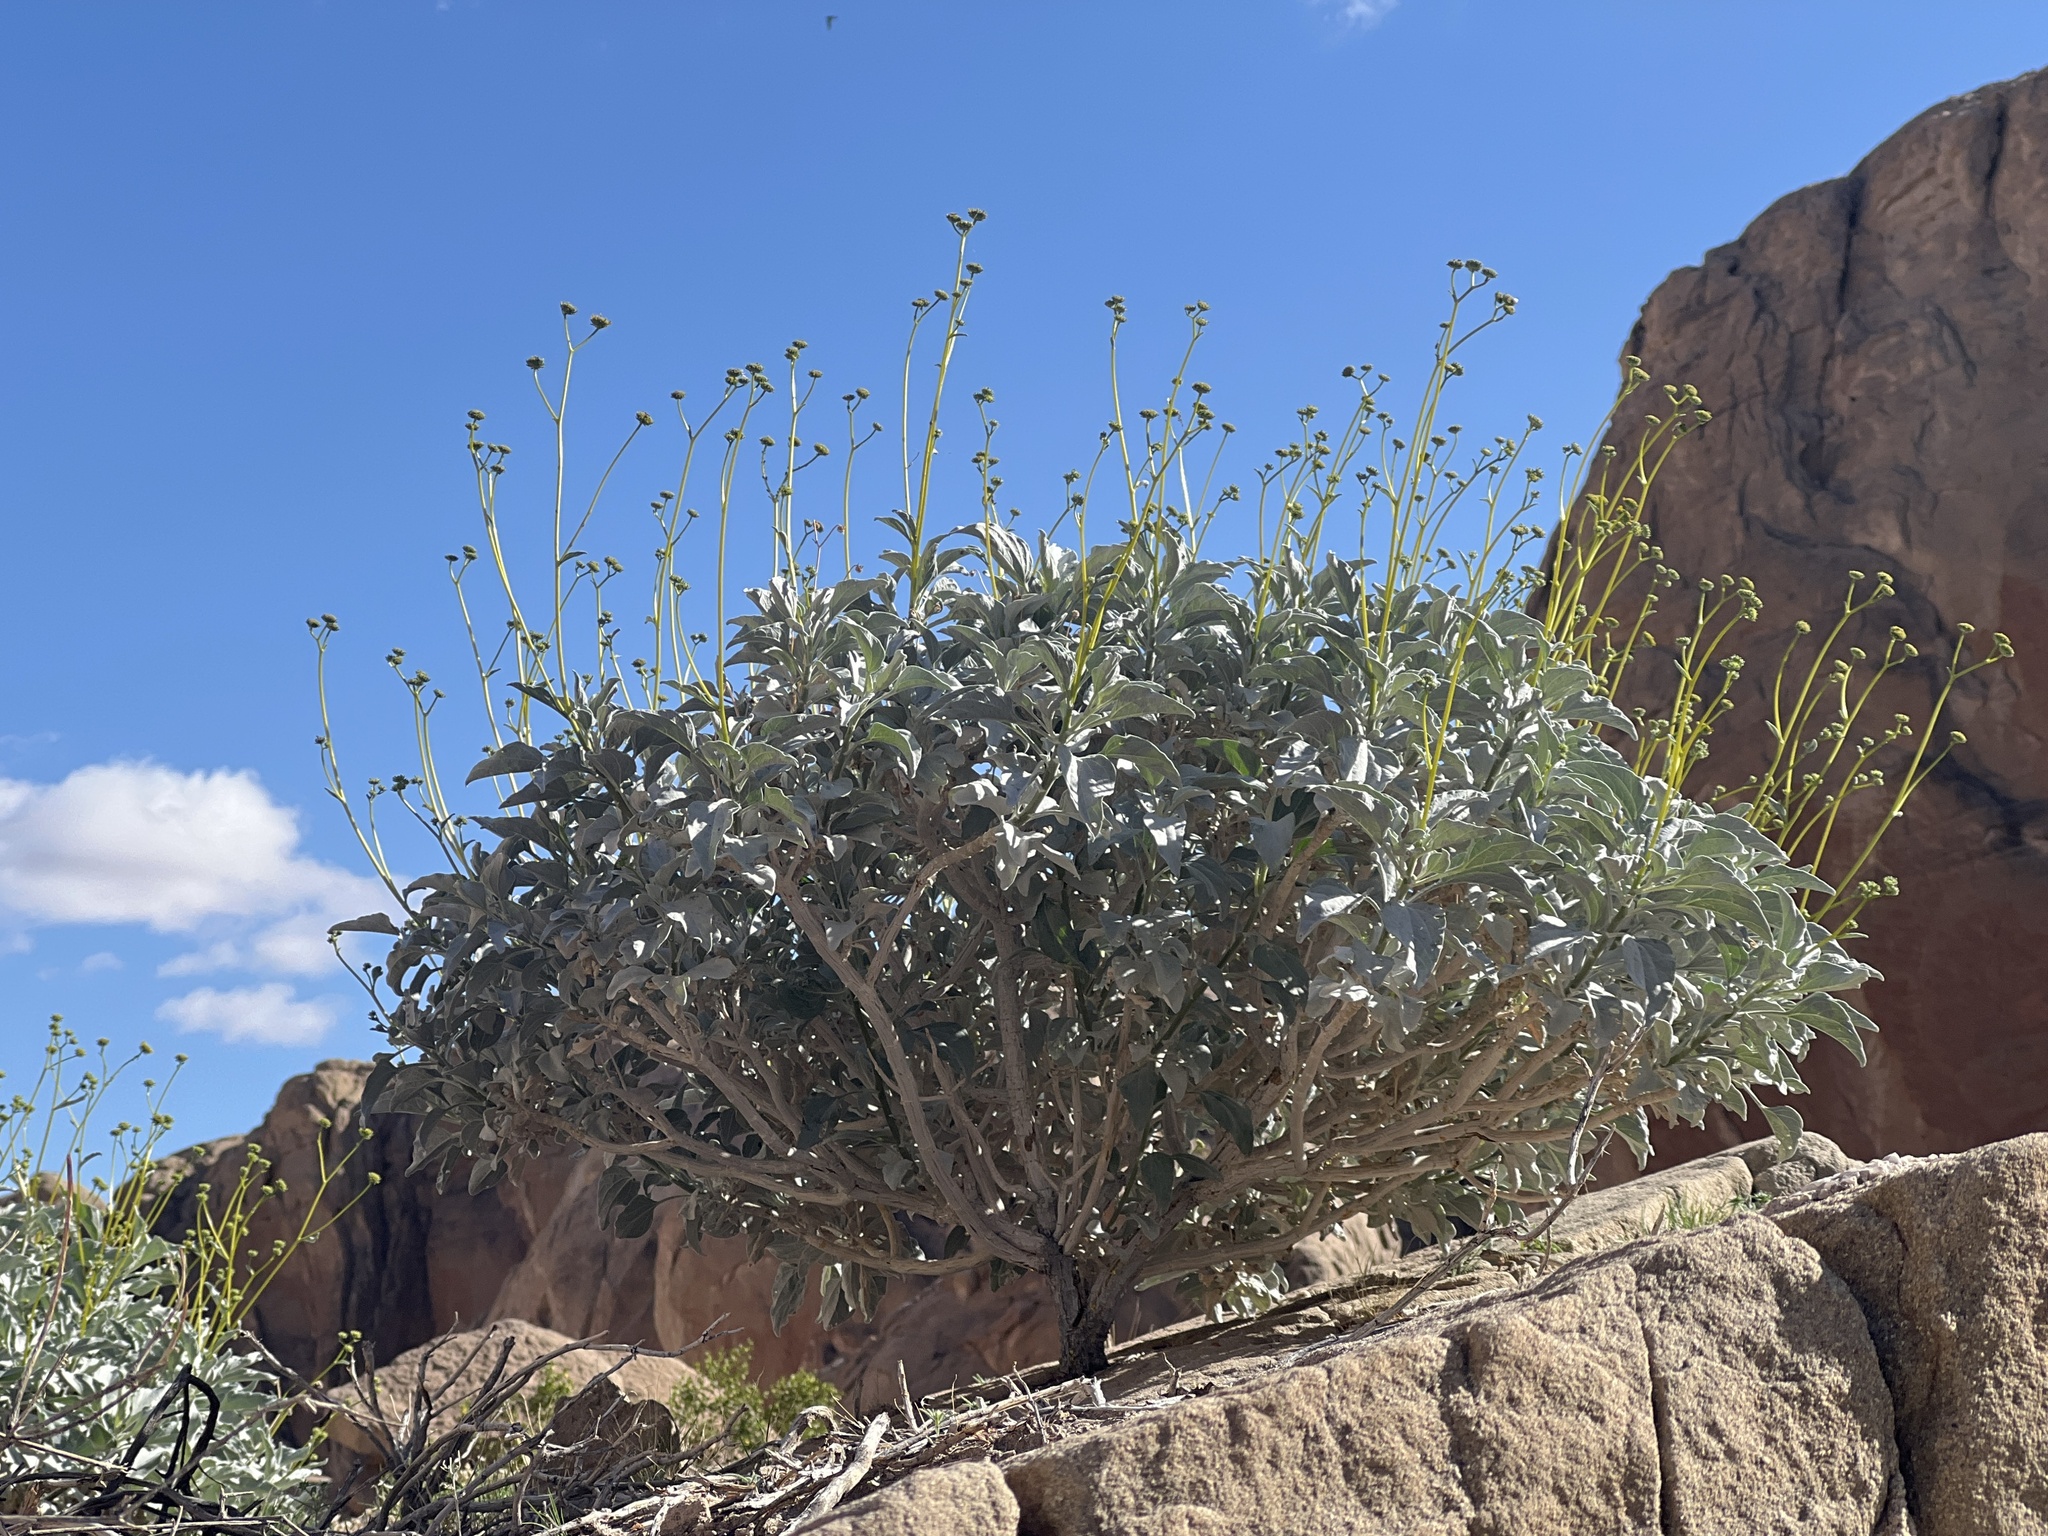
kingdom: Plantae
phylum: Tracheophyta
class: Magnoliopsida
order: Asterales
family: Asteraceae
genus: Encelia
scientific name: Encelia farinosa
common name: Brittlebush
